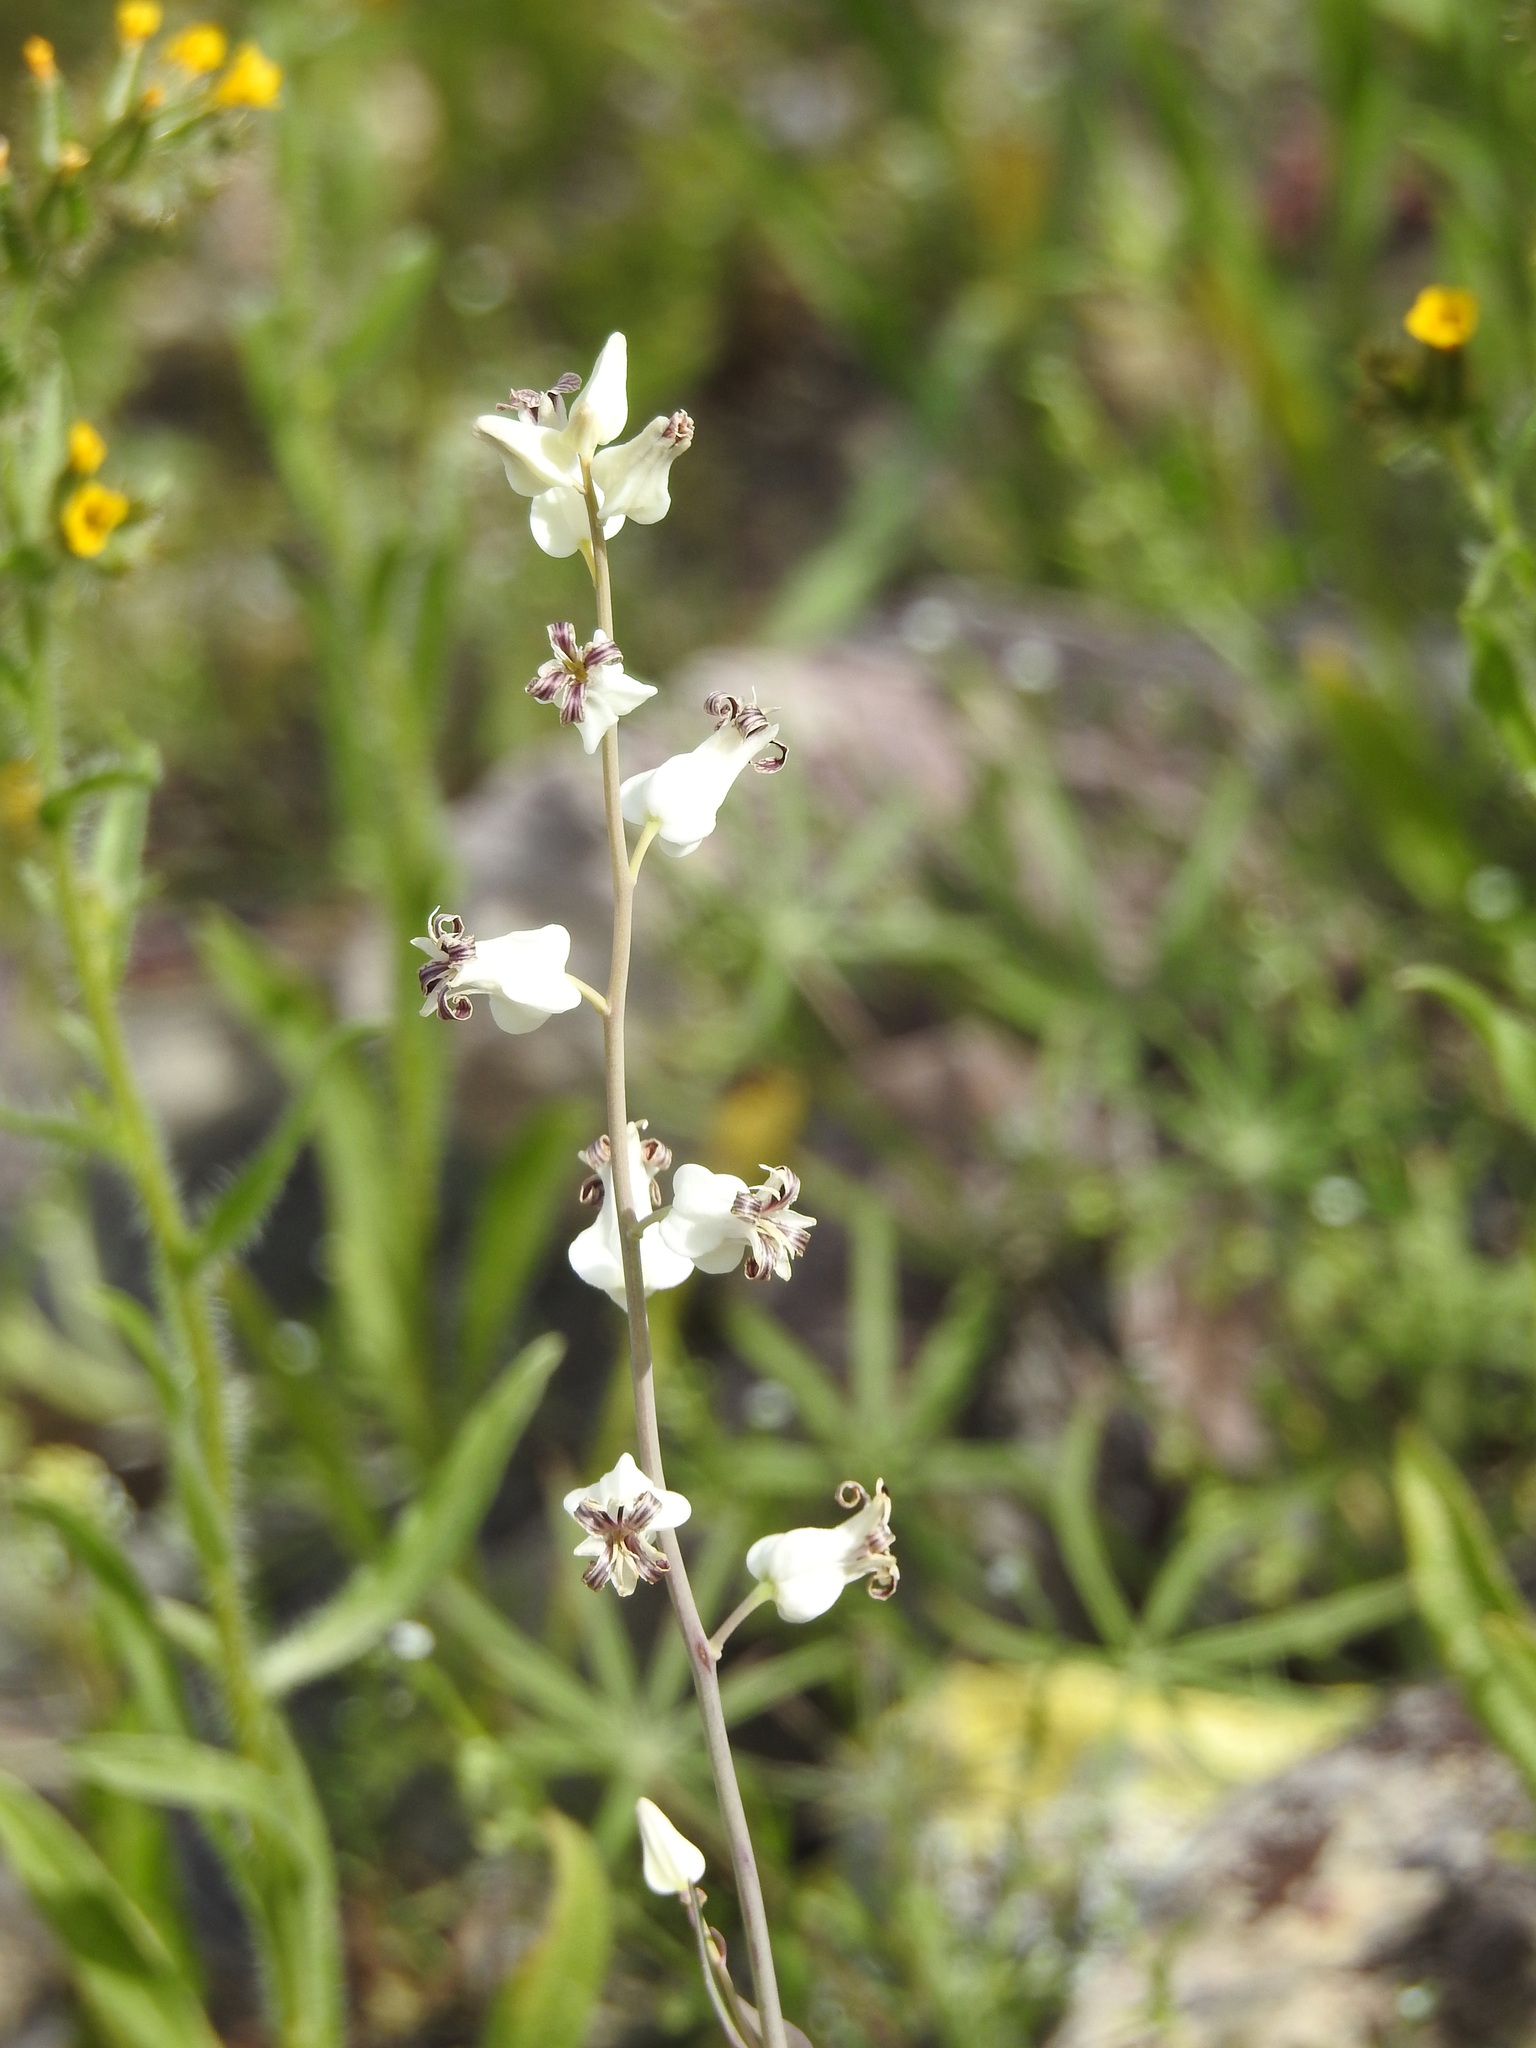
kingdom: Plantae
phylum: Tracheophyta
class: Magnoliopsida
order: Brassicales
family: Brassicaceae
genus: Streptanthus
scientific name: Streptanthus carinatus
